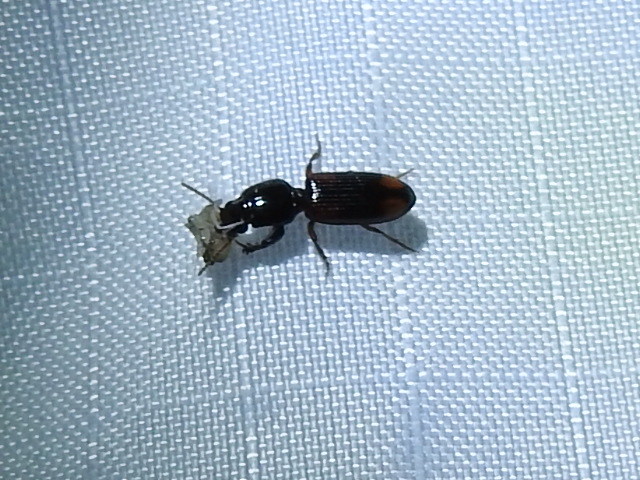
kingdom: Animalia
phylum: Arthropoda
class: Insecta
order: Coleoptera
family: Carabidae
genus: Aspidoglossa
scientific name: Aspidoglossa subangulata
